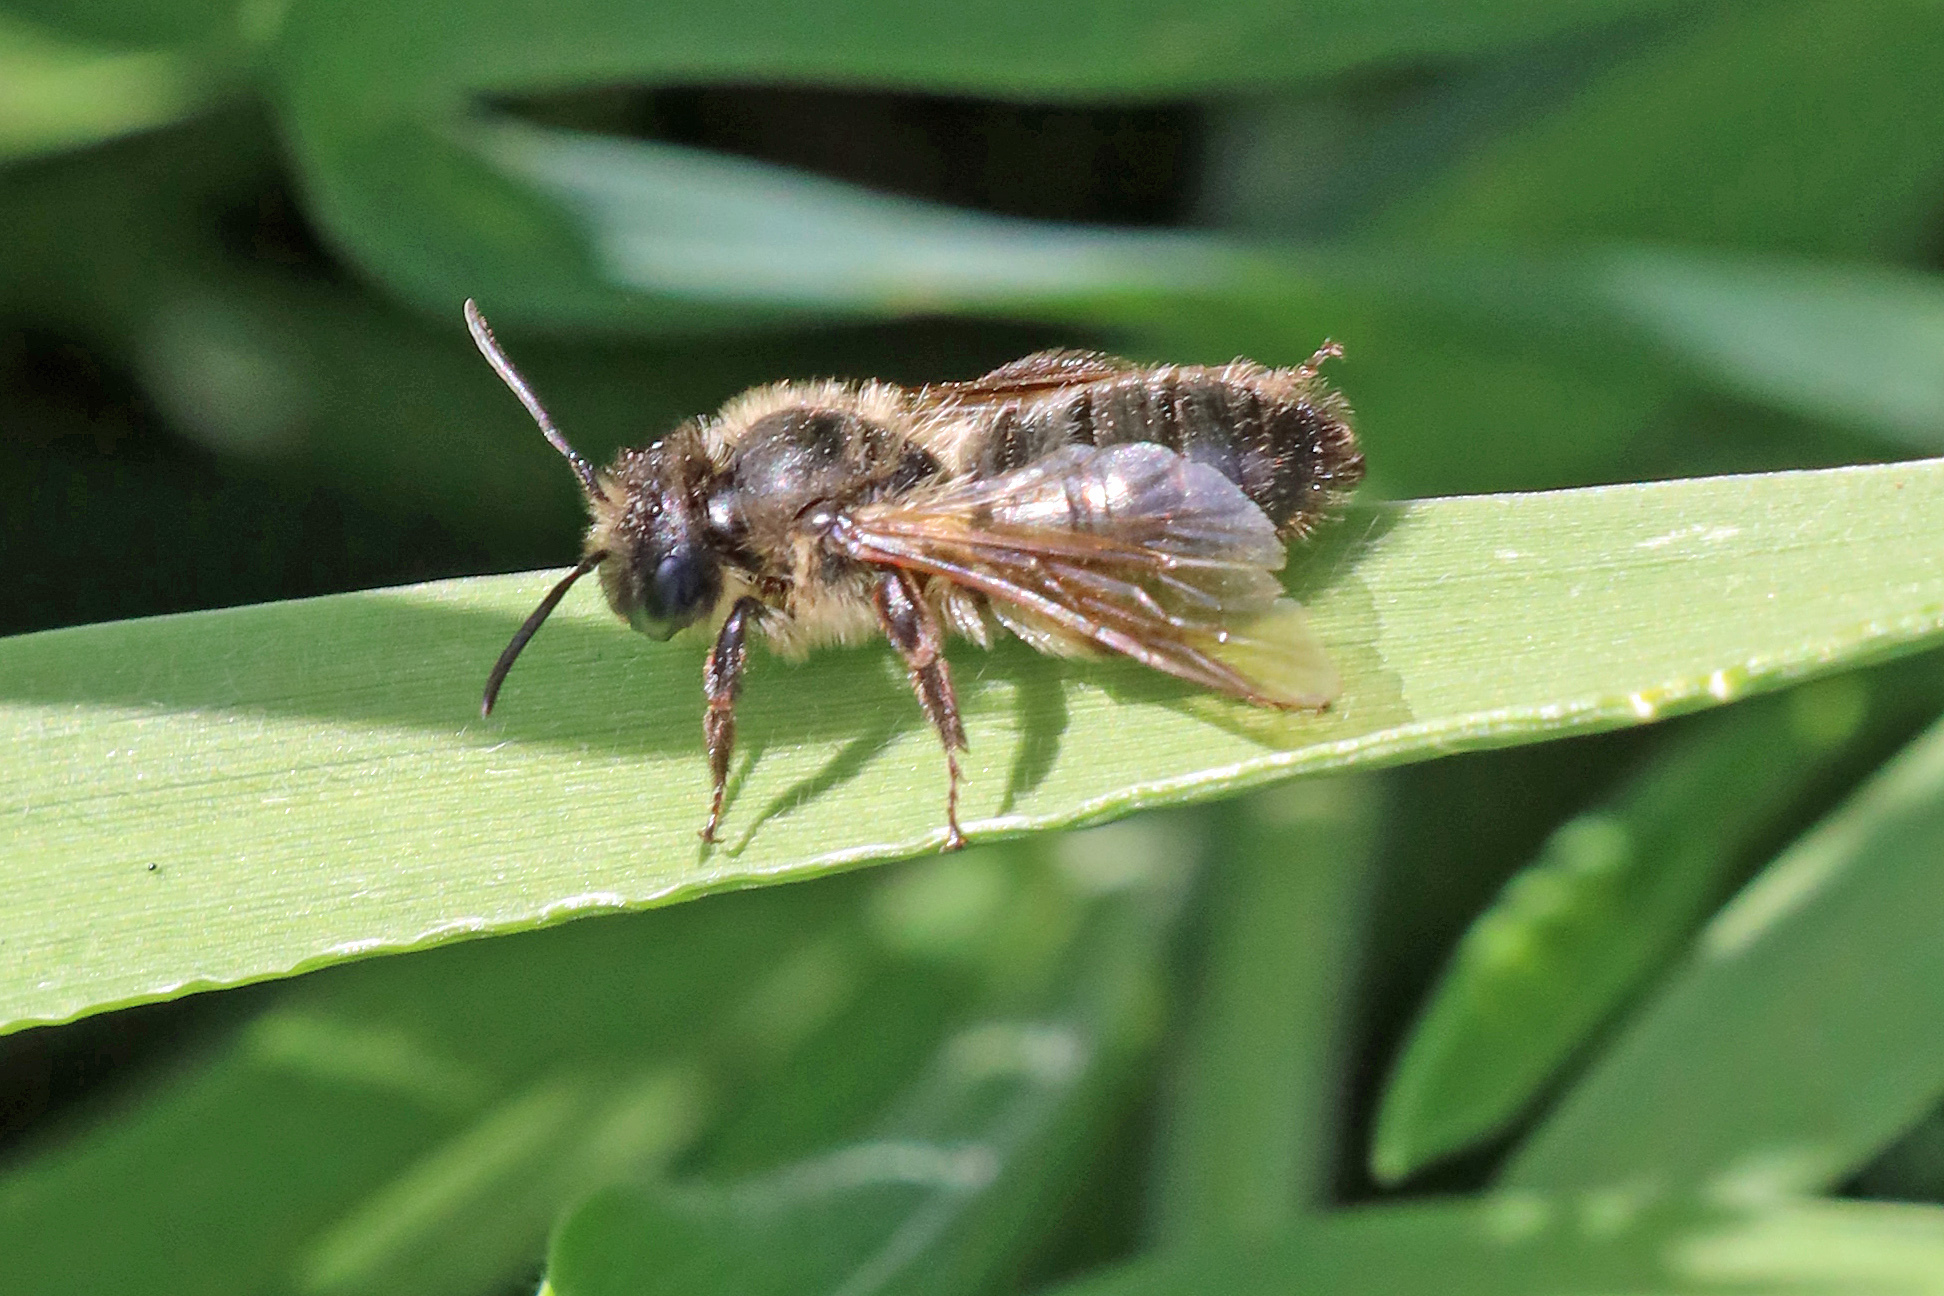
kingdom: Animalia
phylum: Arthropoda
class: Insecta
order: Hymenoptera
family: Andrenidae
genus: Andrena
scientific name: Andrena carantonica
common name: Chocolate mining bee
